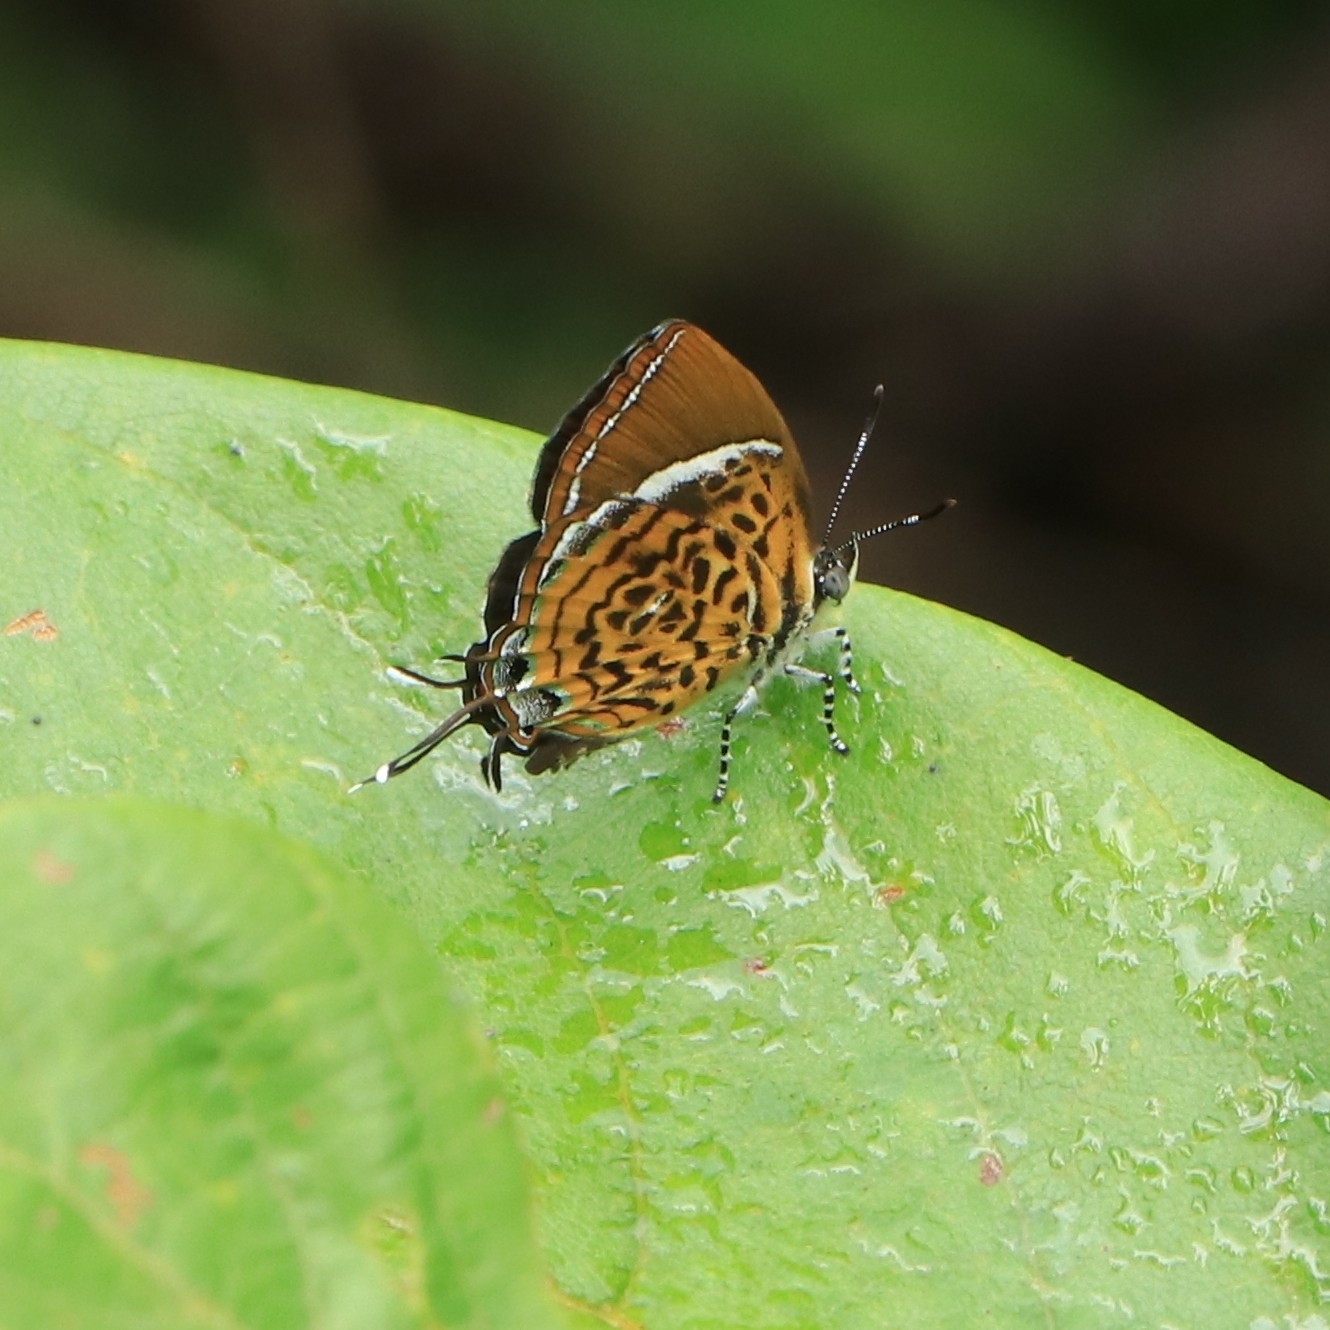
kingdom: Animalia
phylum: Arthropoda
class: Insecta
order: Lepidoptera
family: Lycaenidae
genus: Rathinda
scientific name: Rathinda amor
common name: Monkey puzzle
